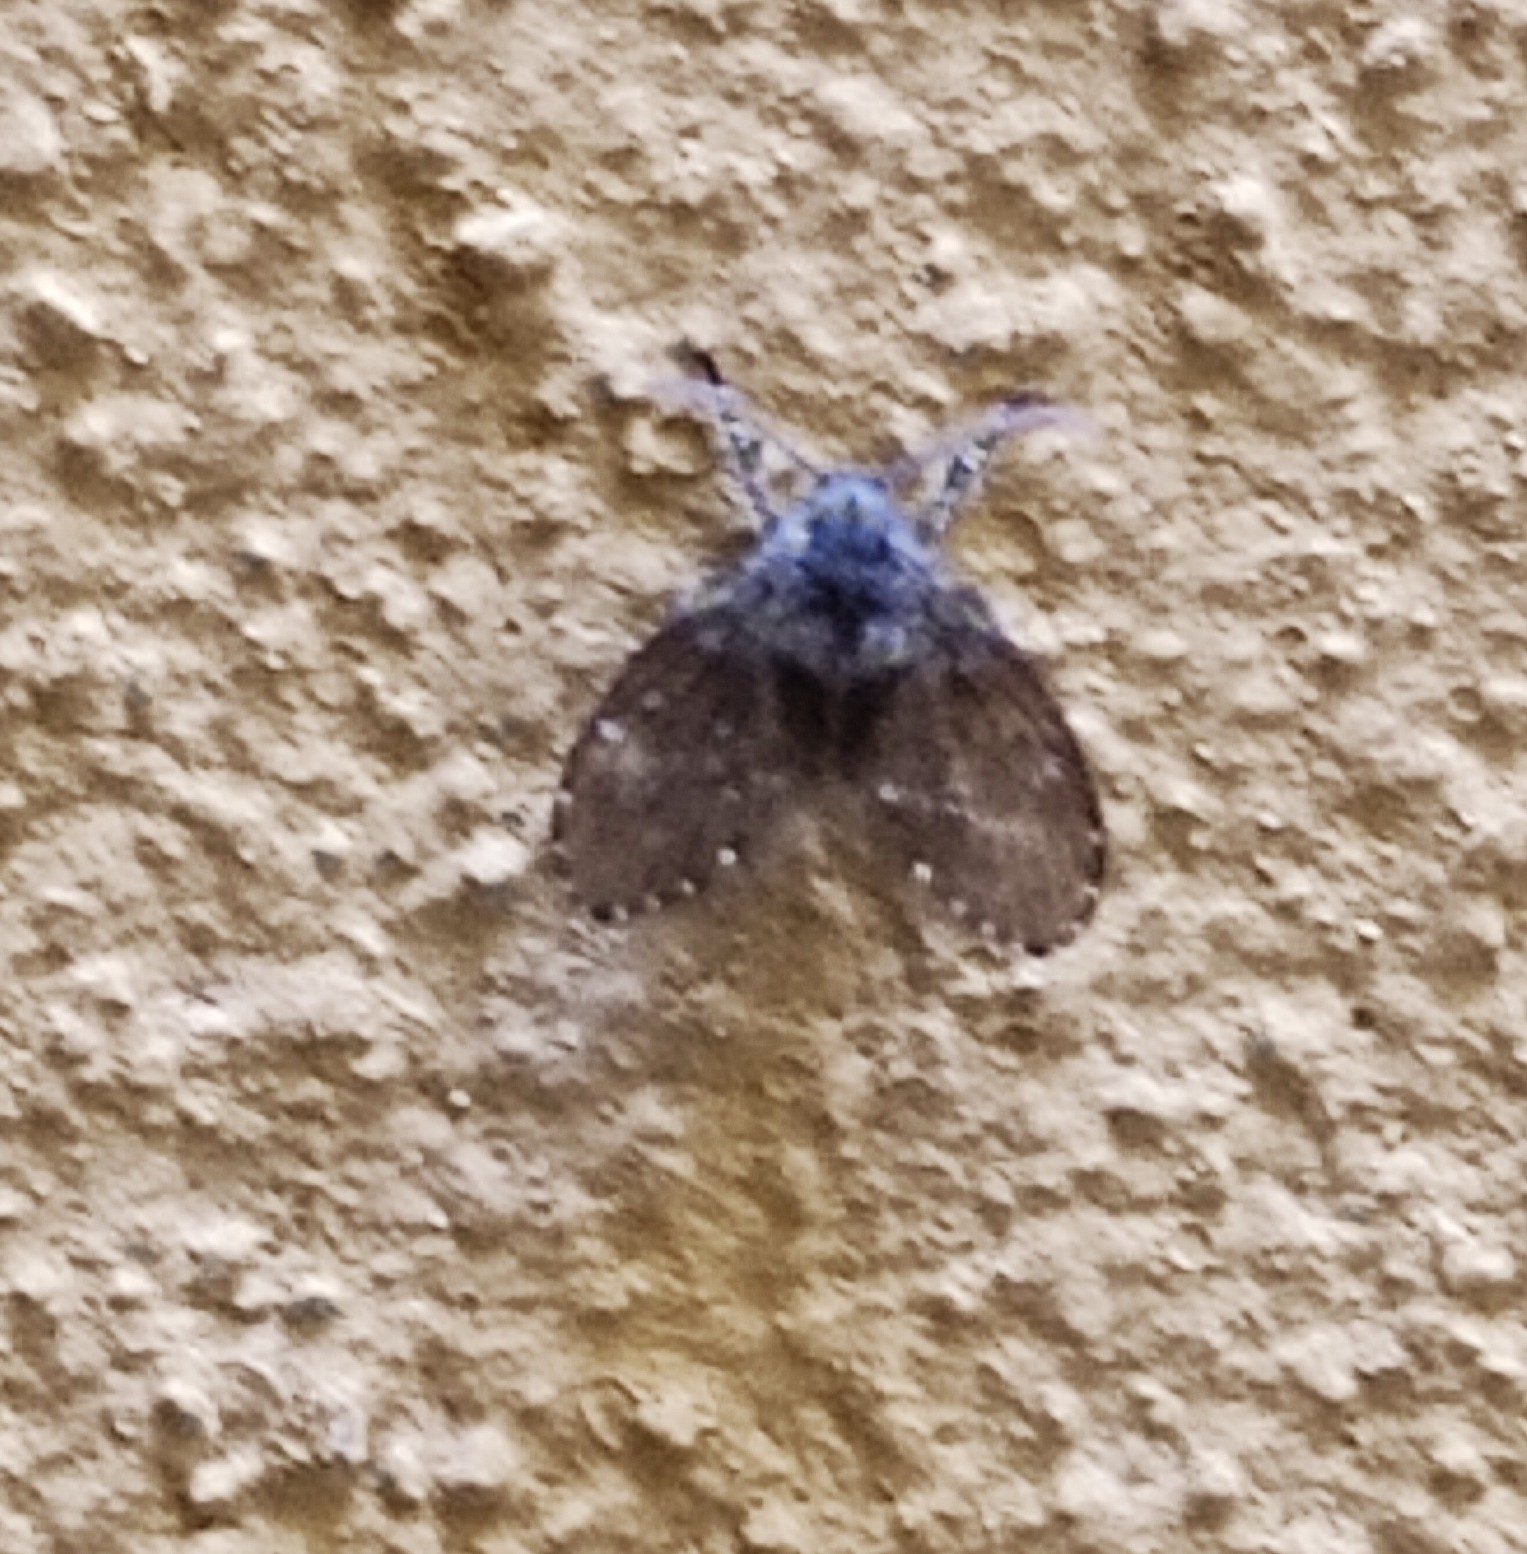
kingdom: Animalia
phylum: Arthropoda
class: Insecta
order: Diptera
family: Psychodidae
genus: Clogmia
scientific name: Clogmia albipunctatus
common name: White-spotted moth fly
